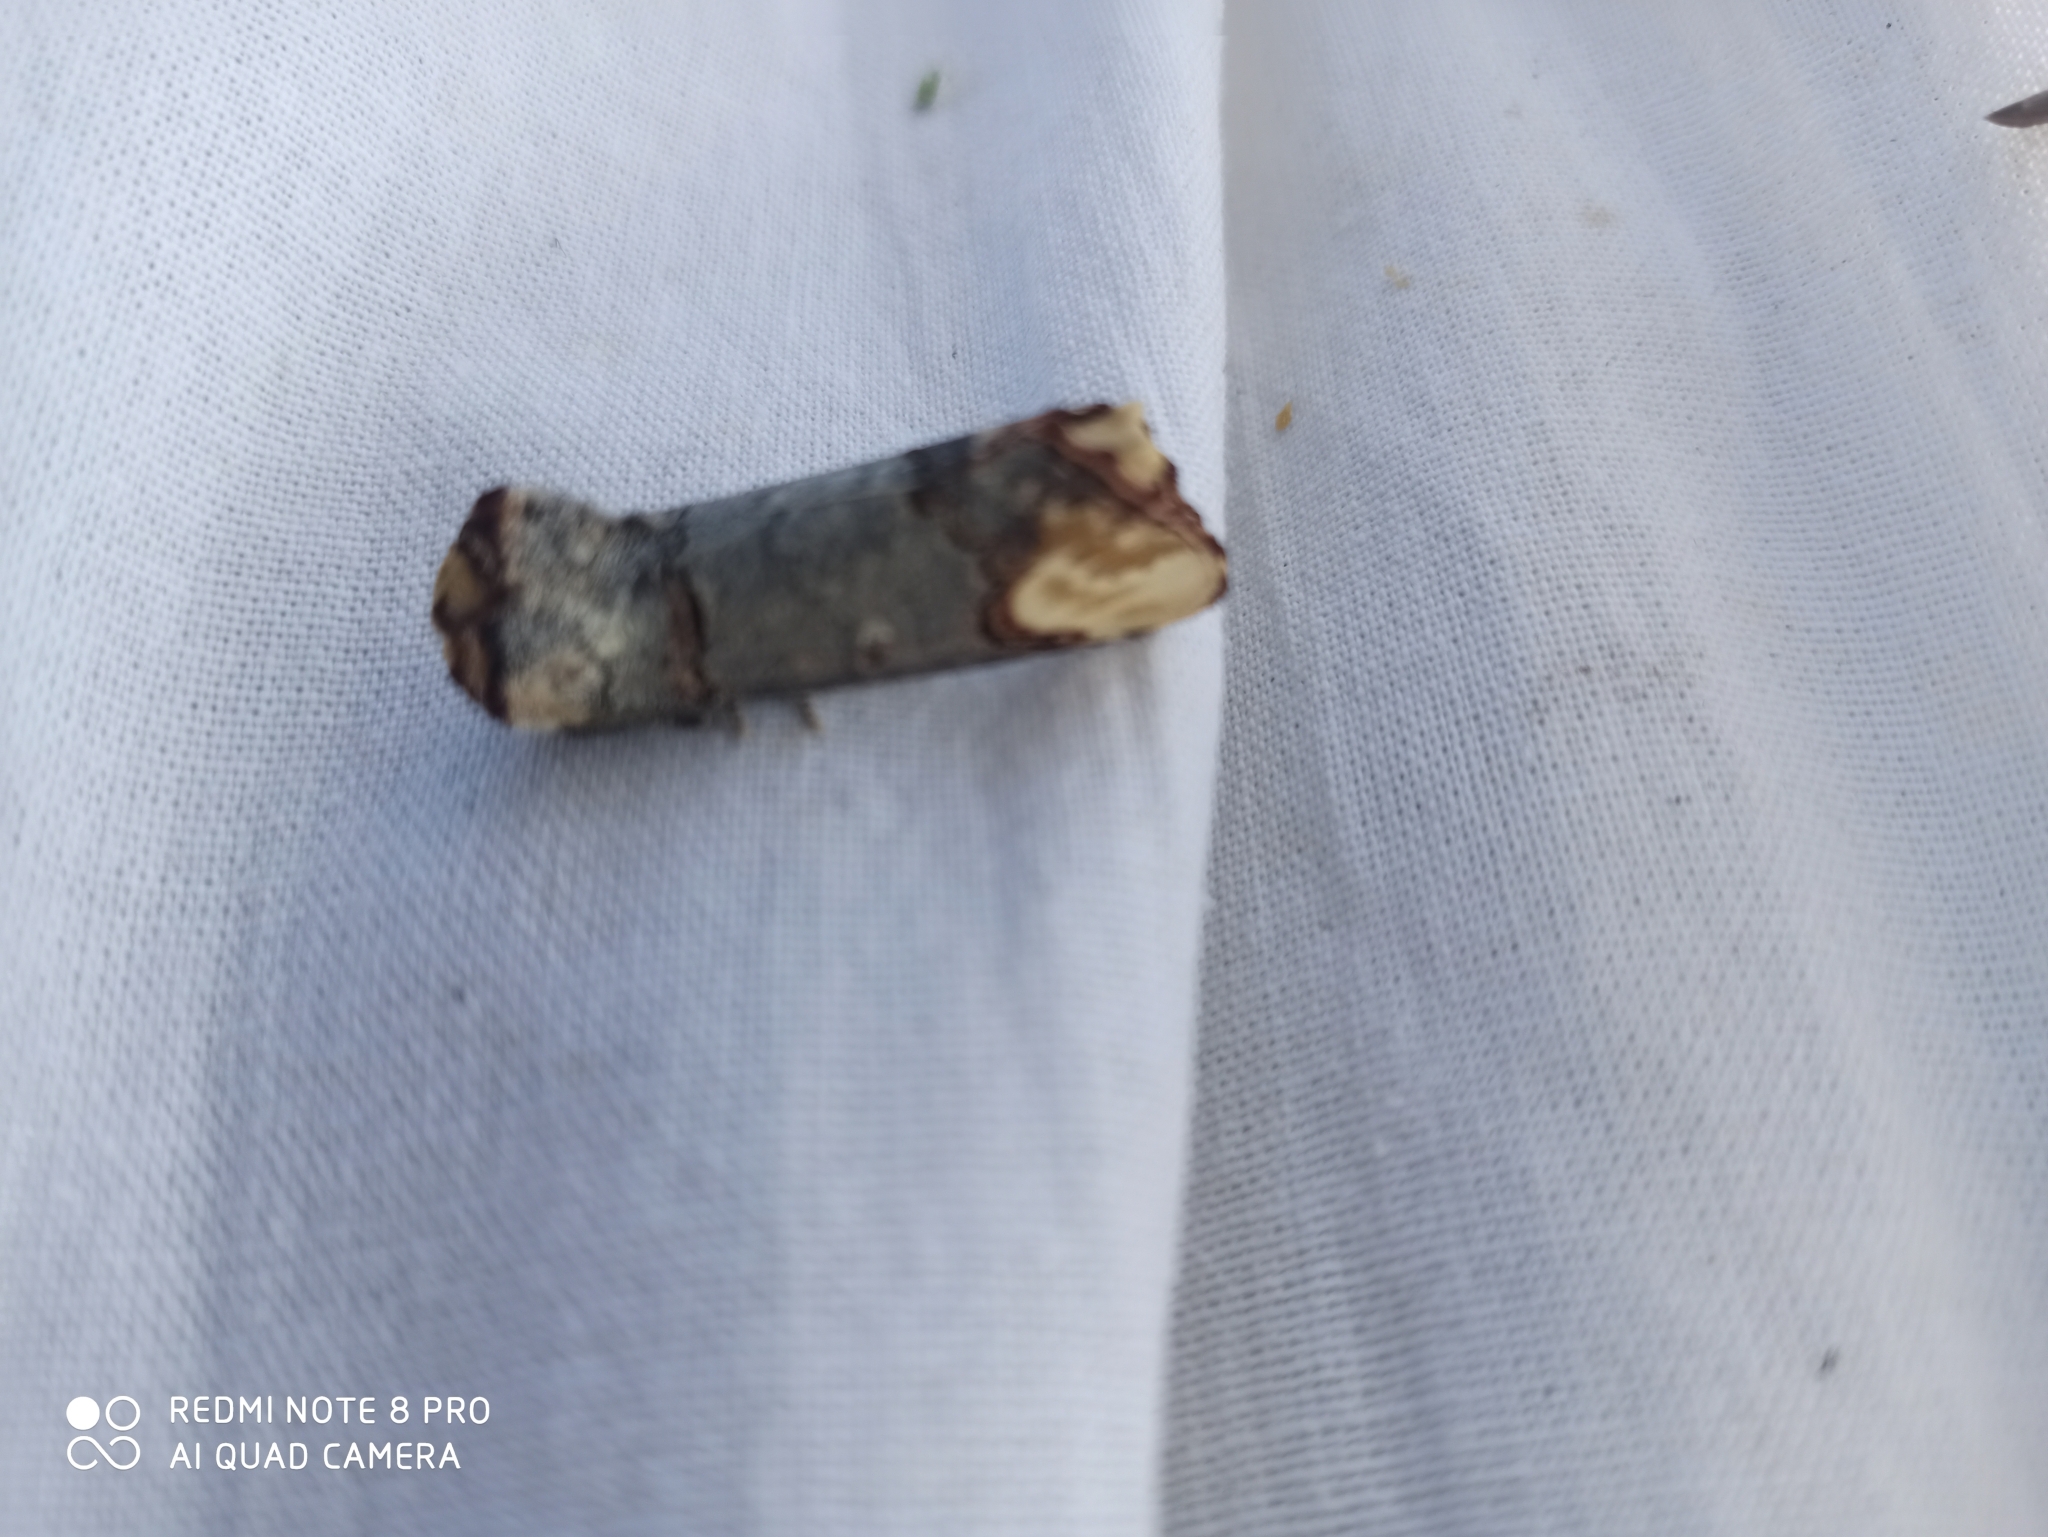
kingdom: Animalia
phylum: Arthropoda
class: Insecta
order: Lepidoptera
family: Notodontidae
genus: Phalera
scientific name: Phalera bucephala
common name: Buff-tip
